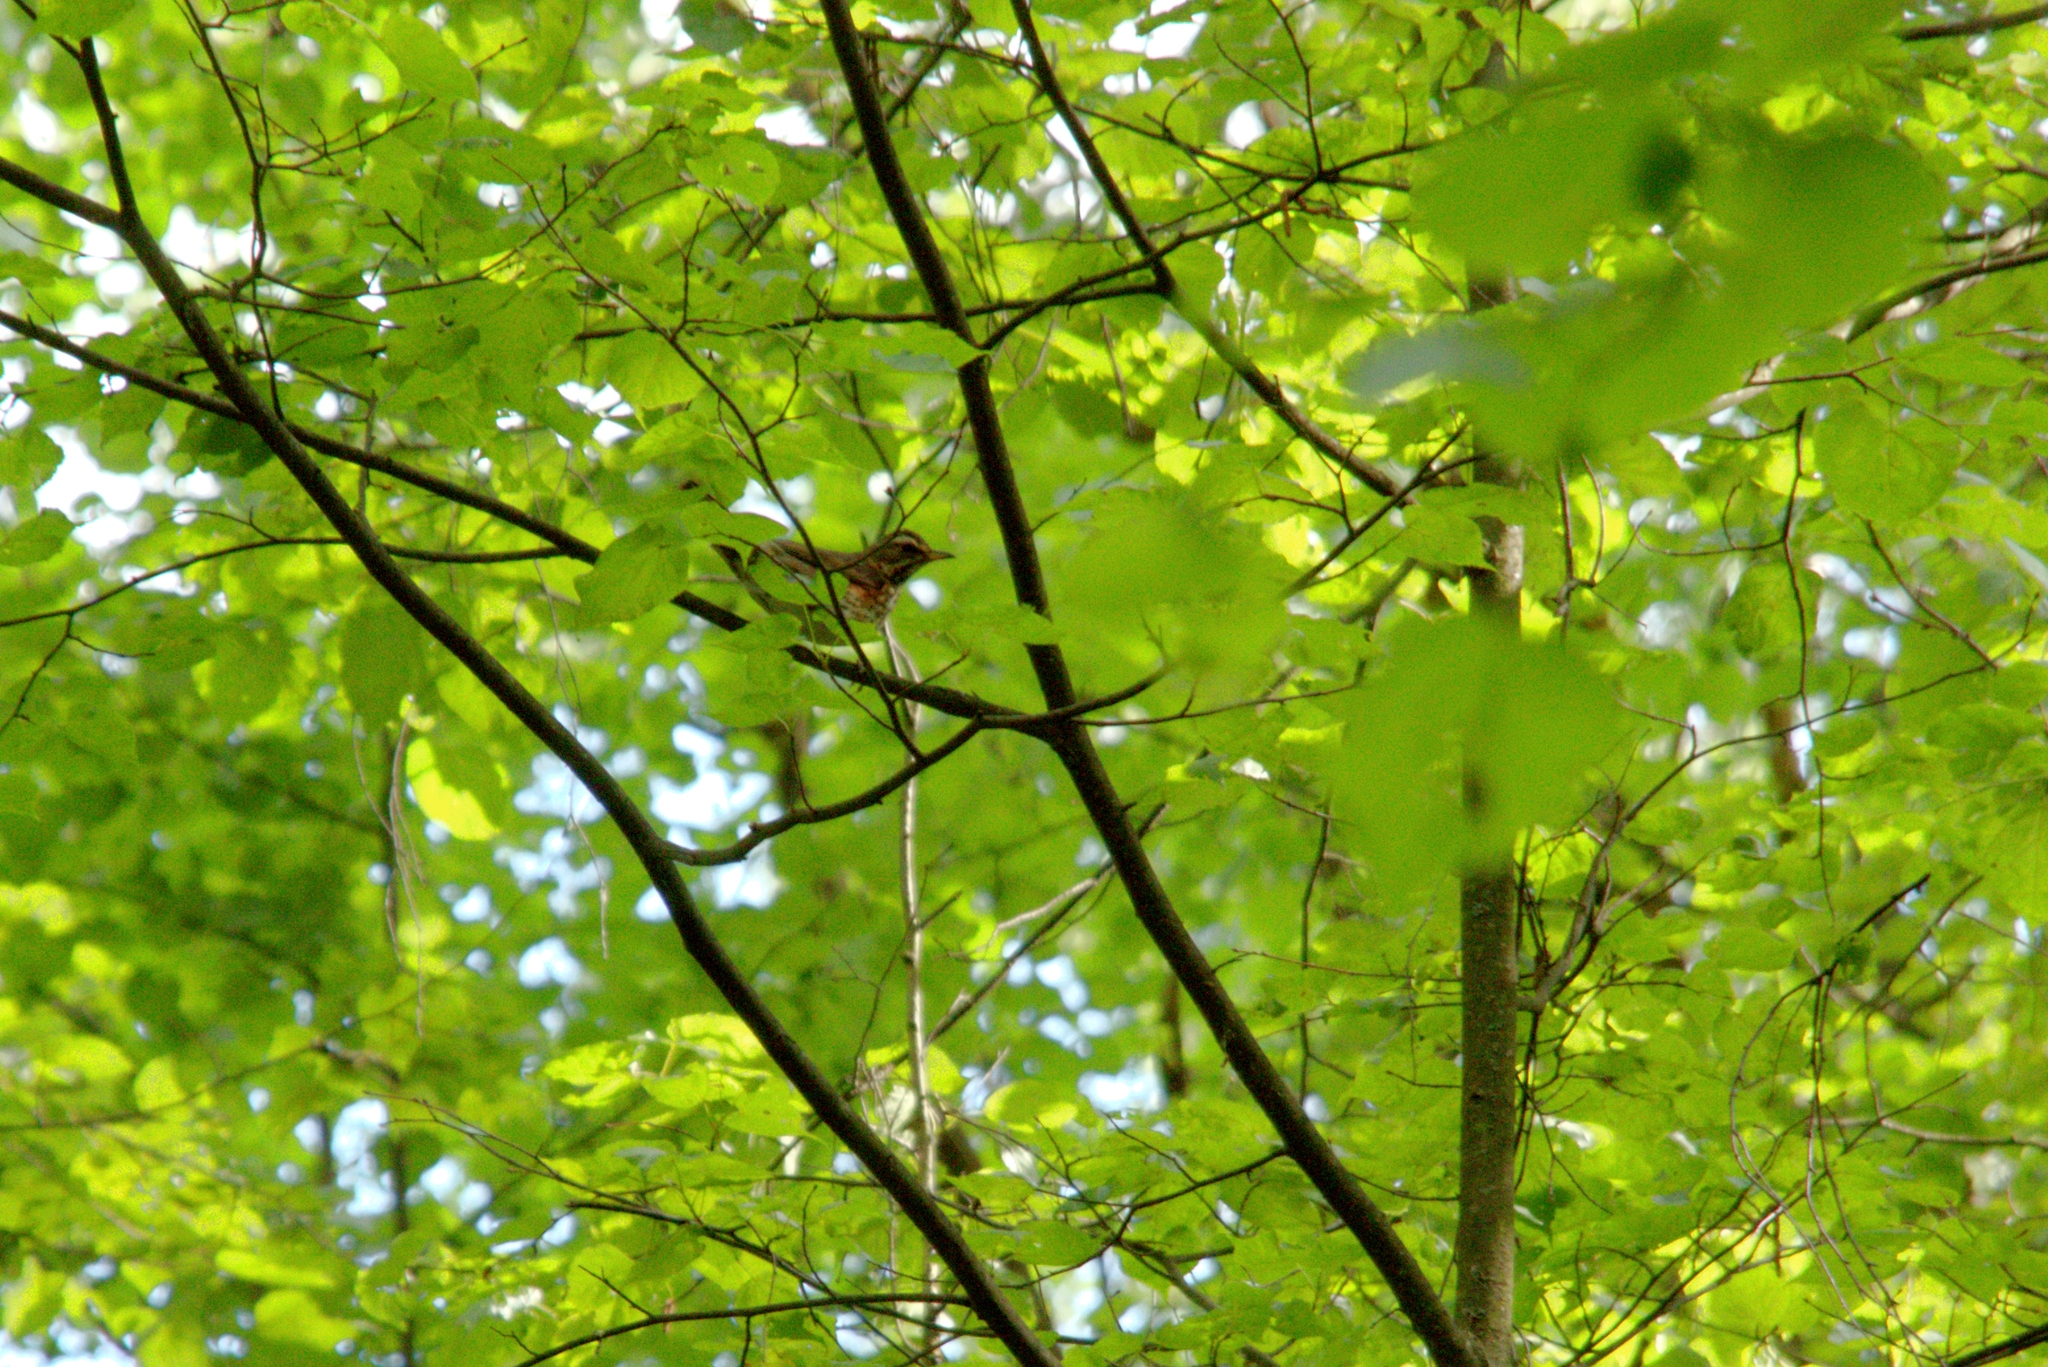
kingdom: Animalia
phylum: Chordata
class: Aves
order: Passeriformes
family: Turdidae
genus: Turdus
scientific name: Turdus iliacus
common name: Redwing
